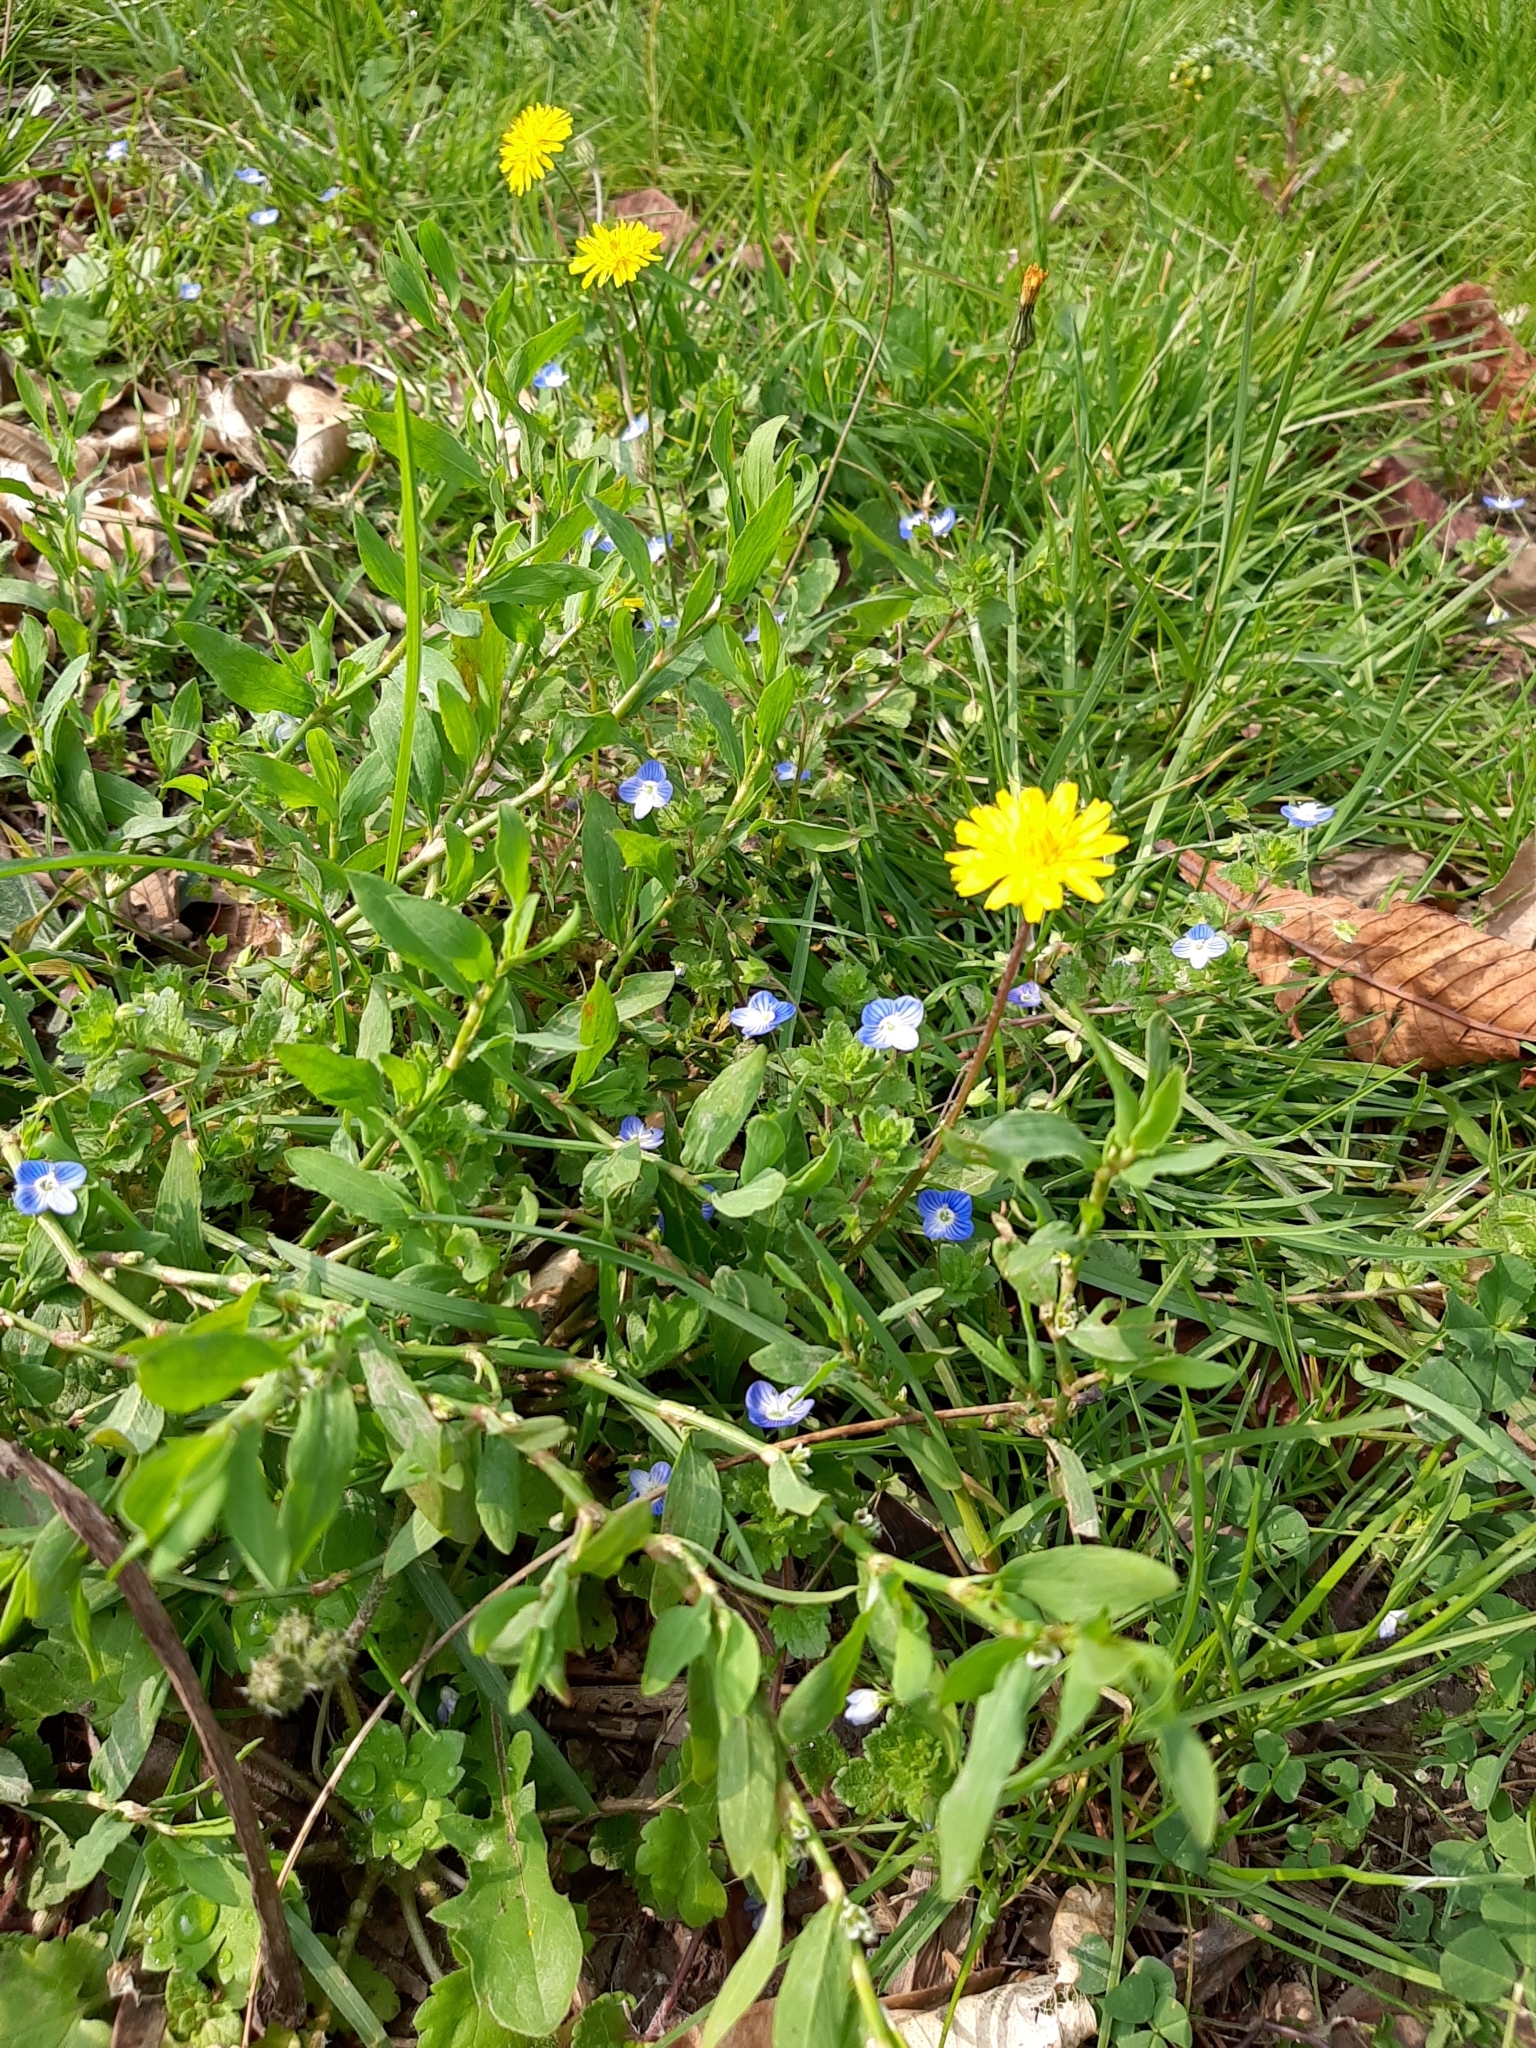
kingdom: Plantae
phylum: Tracheophyta
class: Magnoliopsida
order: Lamiales
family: Plantaginaceae
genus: Veronica
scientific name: Veronica persica
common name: Common field-speedwell
